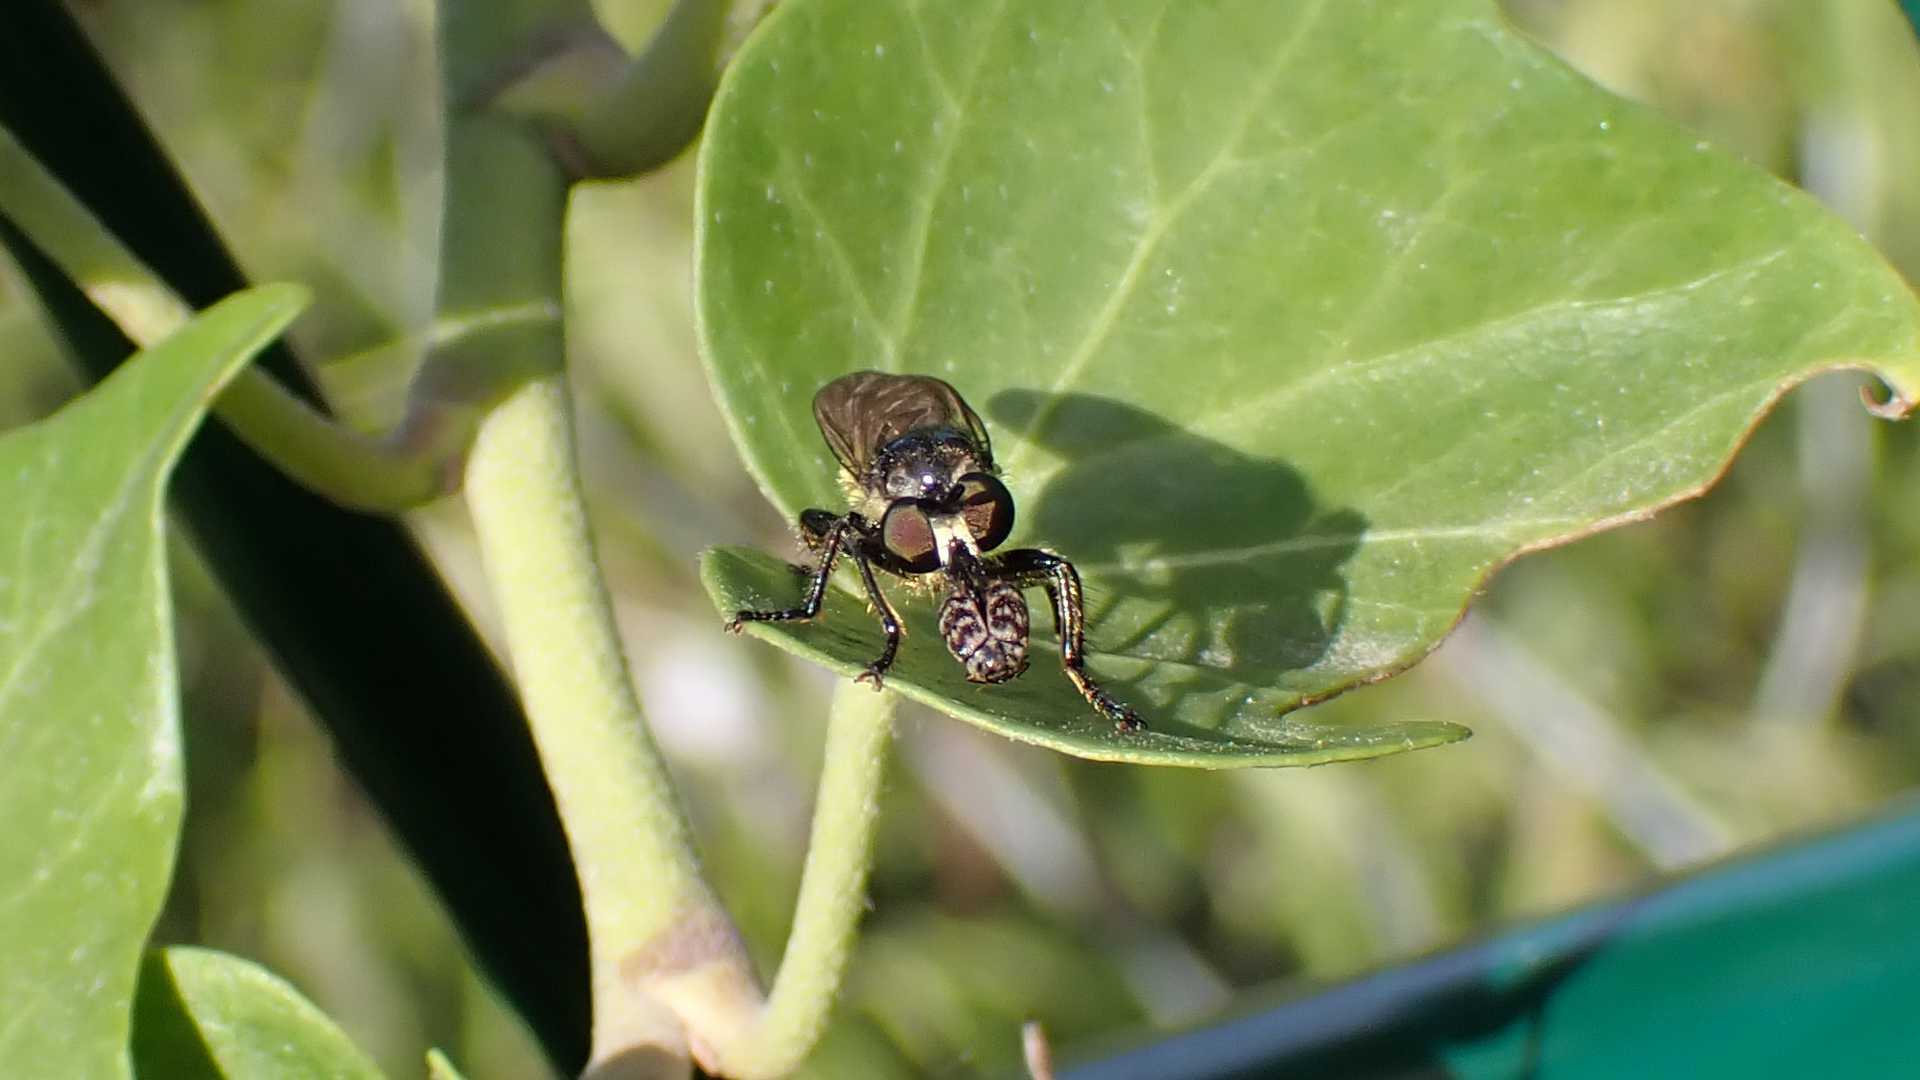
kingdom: Animalia
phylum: Arthropoda
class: Insecta
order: Diptera
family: Asilidae
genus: Lamyra
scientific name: Lamyra fimbriata
